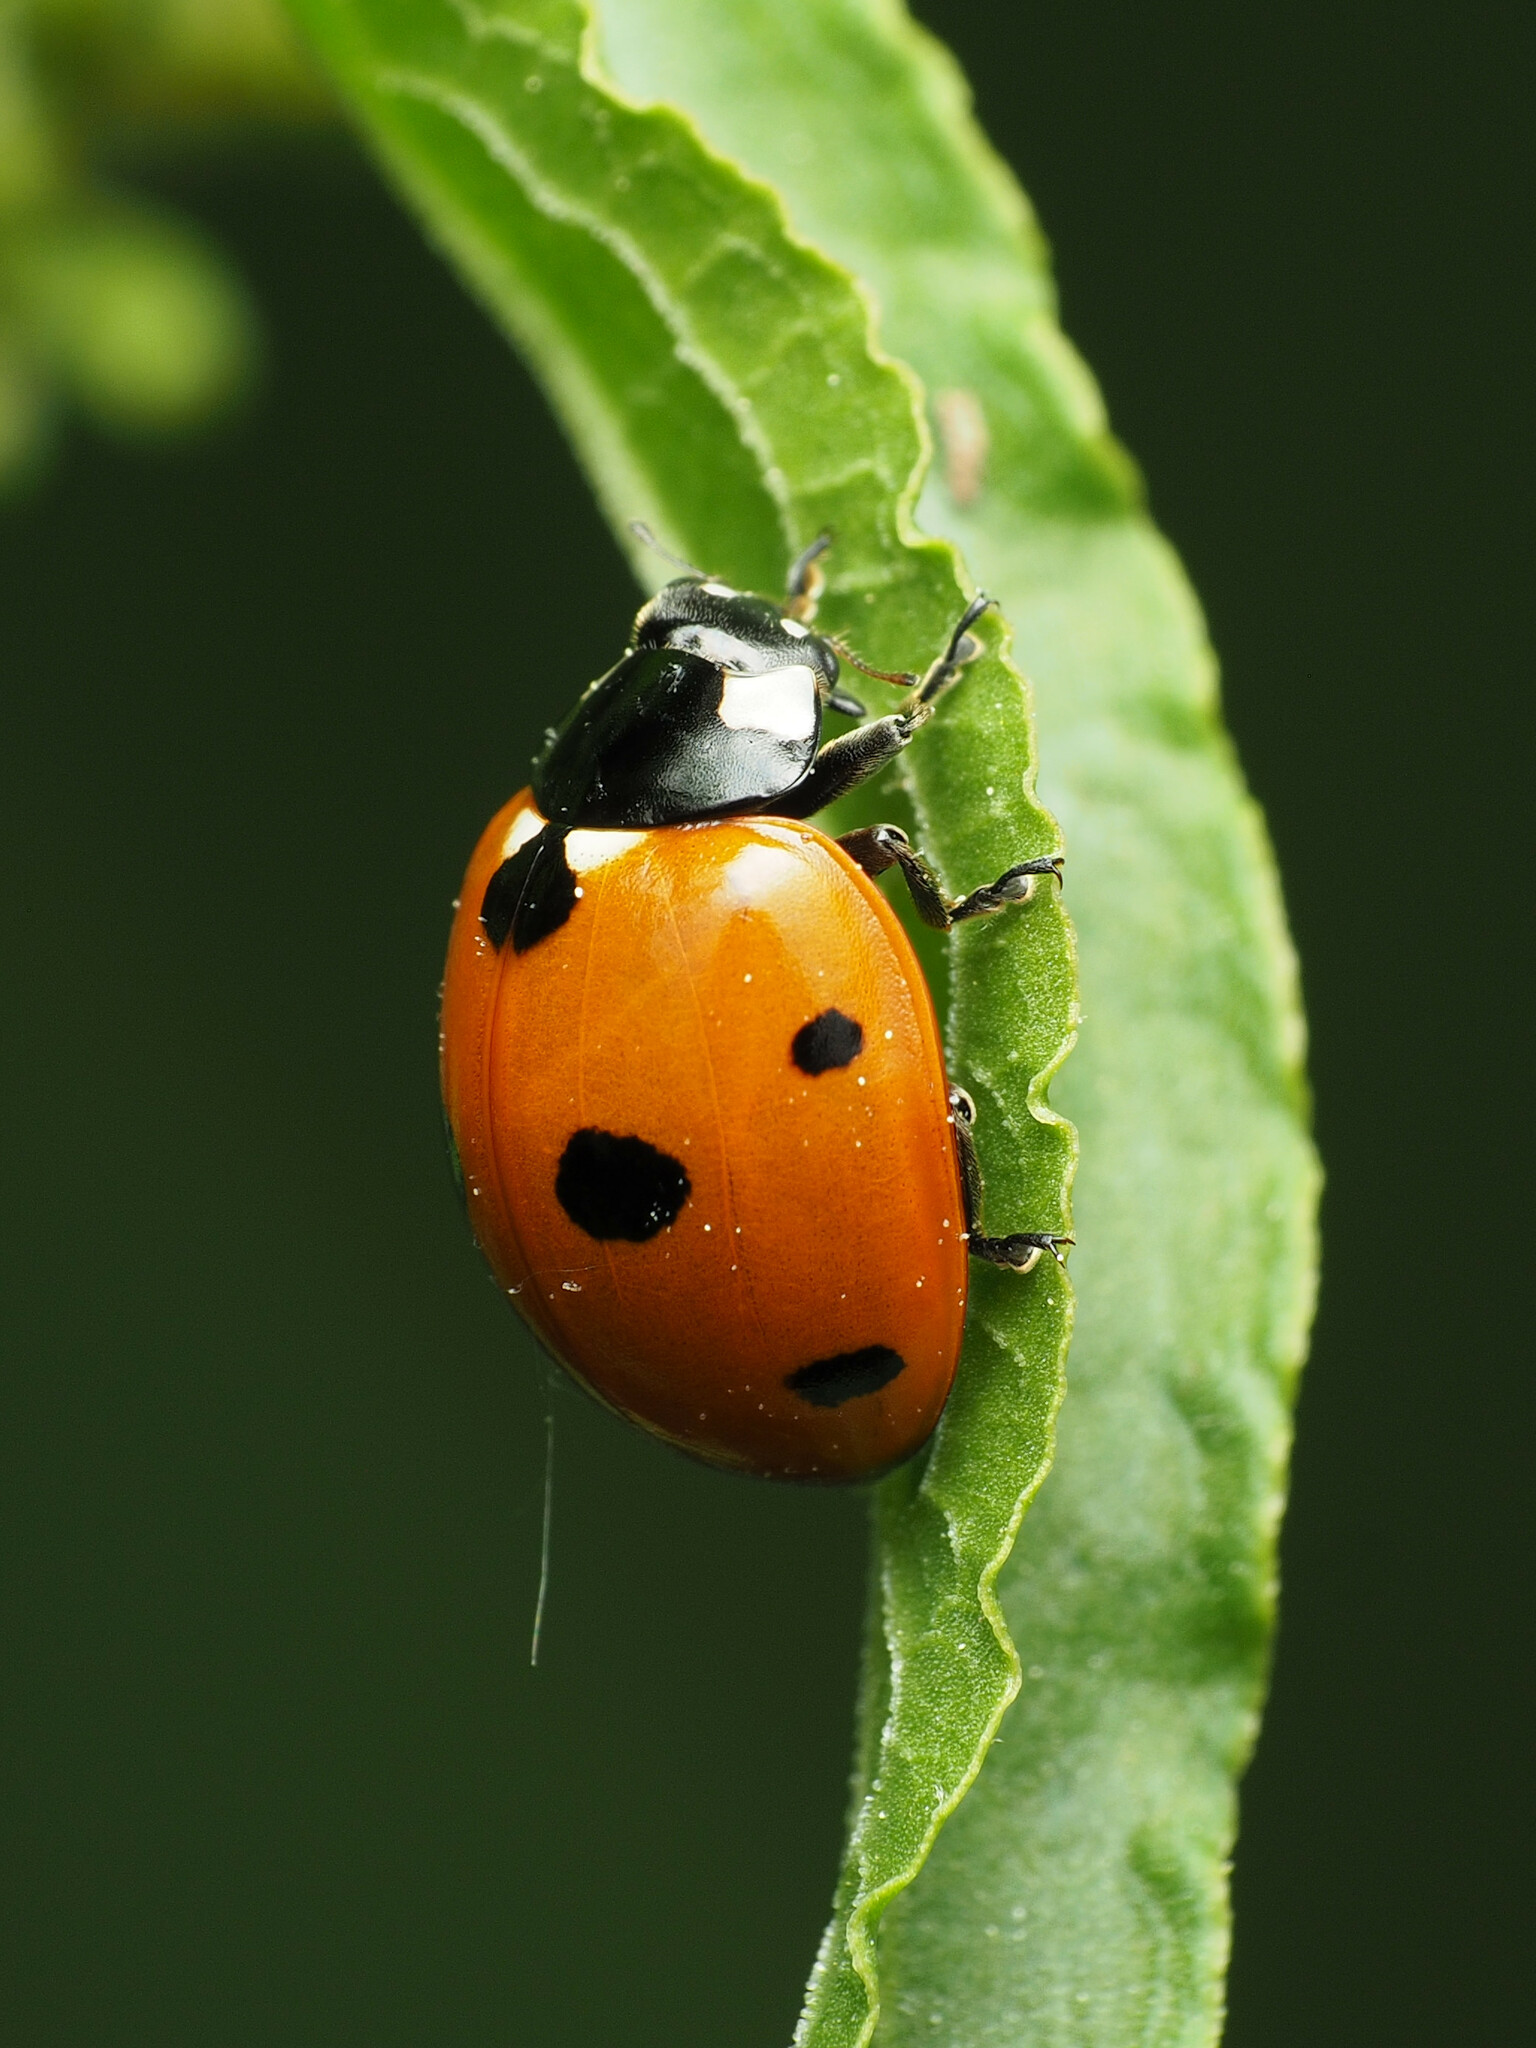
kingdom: Animalia
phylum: Arthropoda
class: Insecta
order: Coleoptera
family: Coccinellidae
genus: Coccinella
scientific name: Coccinella septempunctata
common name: Sevenspotted lady beetle
